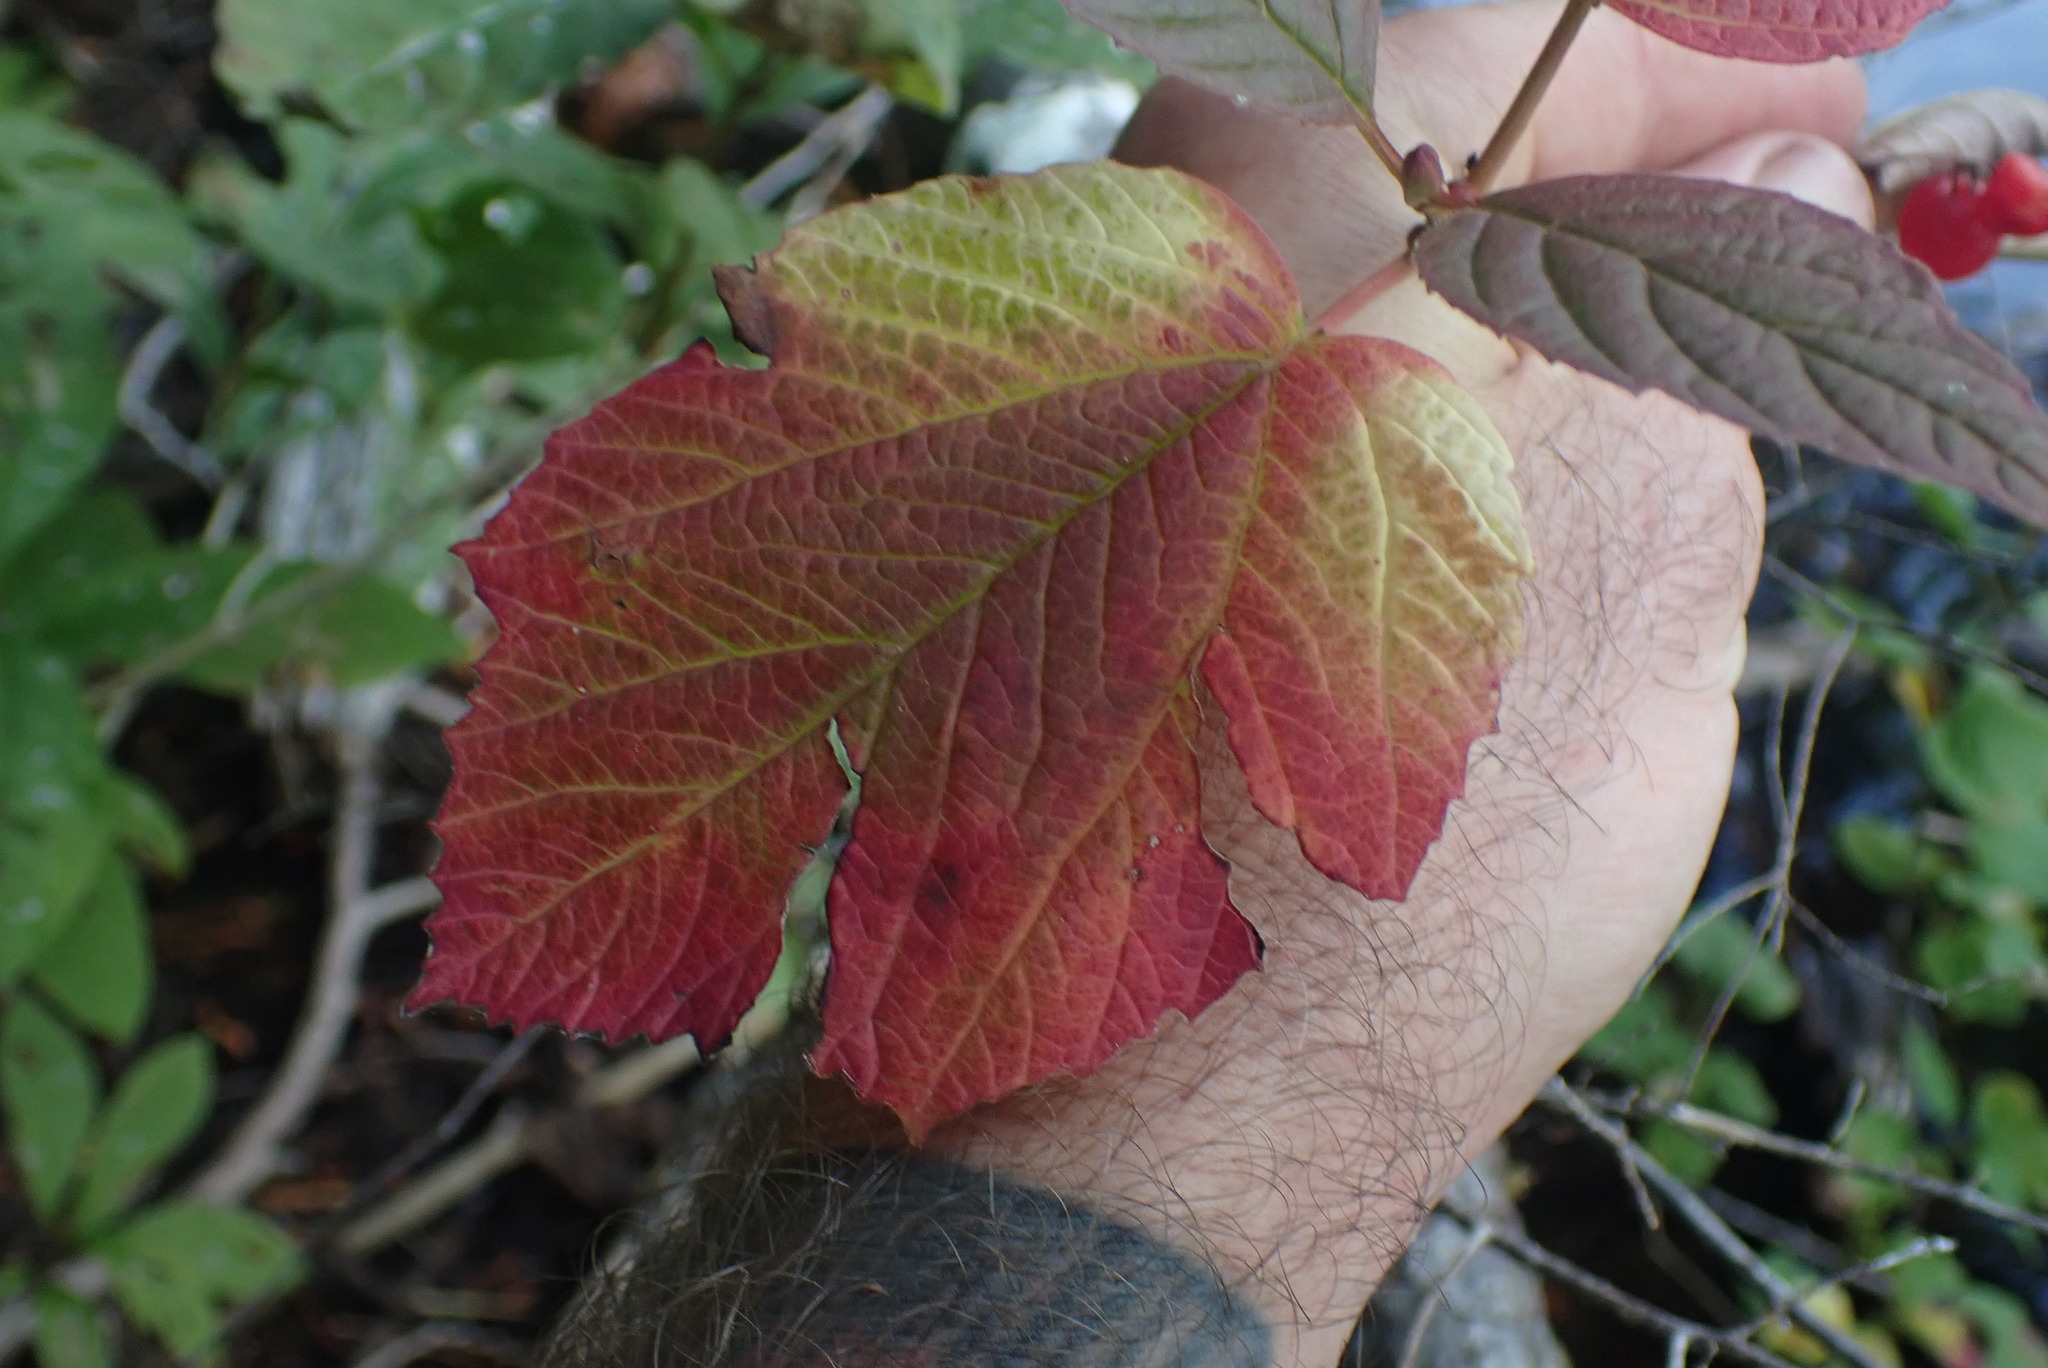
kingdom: Plantae
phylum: Tracheophyta
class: Magnoliopsida
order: Dipsacales
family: Viburnaceae
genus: Viburnum
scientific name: Viburnum edule
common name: Mooseberry
